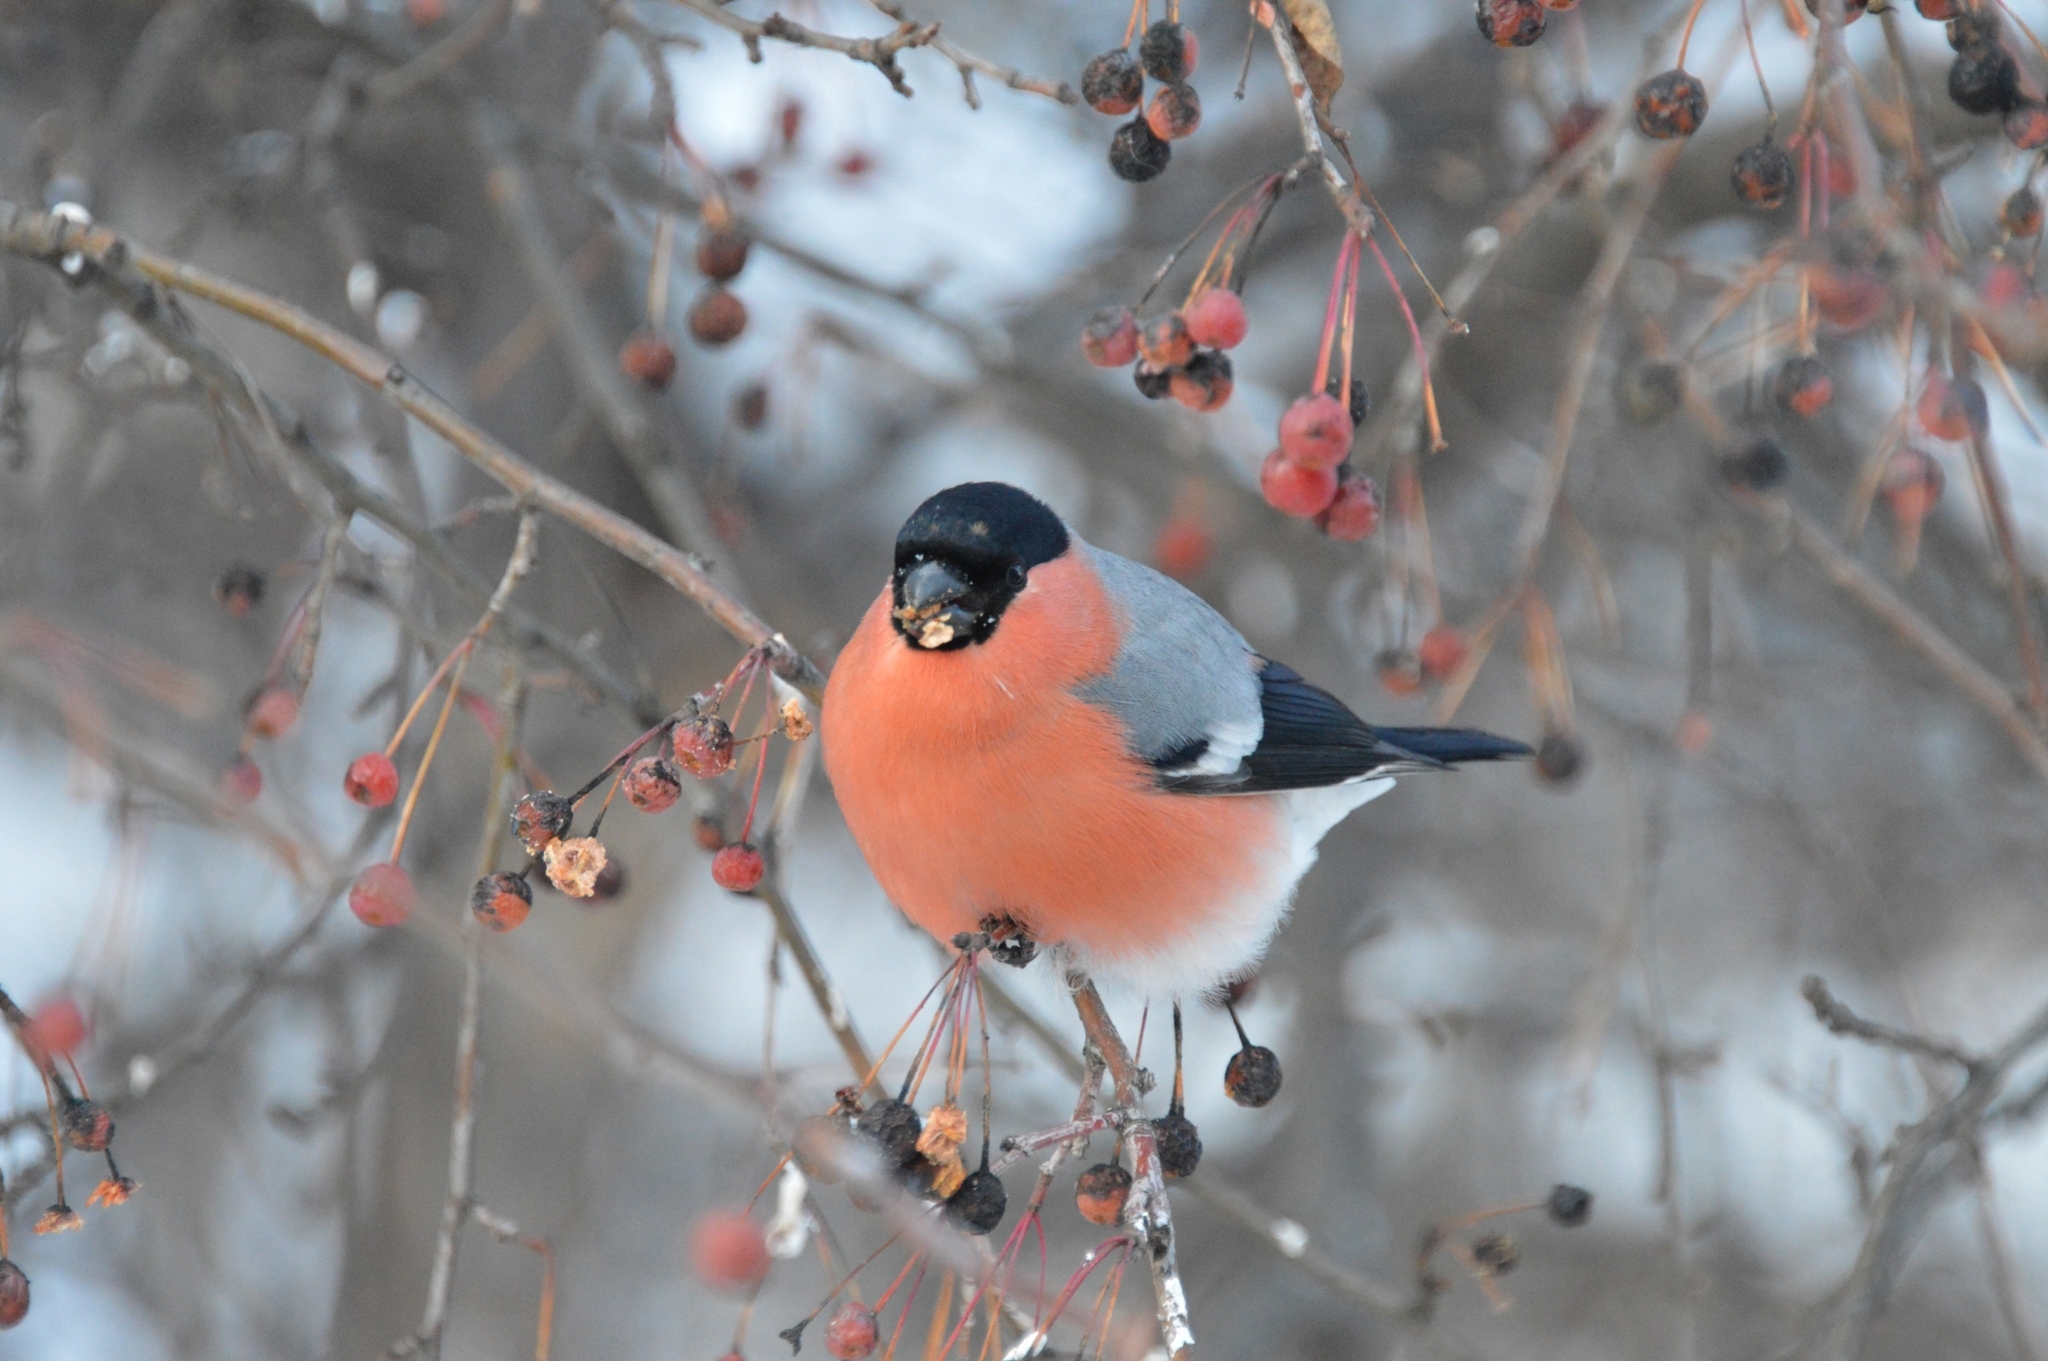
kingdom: Animalia
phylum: Chordata
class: Aves
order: Passeriformes
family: Fringillidae
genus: Pyrrhula
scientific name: Pyrrhula pyrrhula
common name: Eurasian bullfinch
